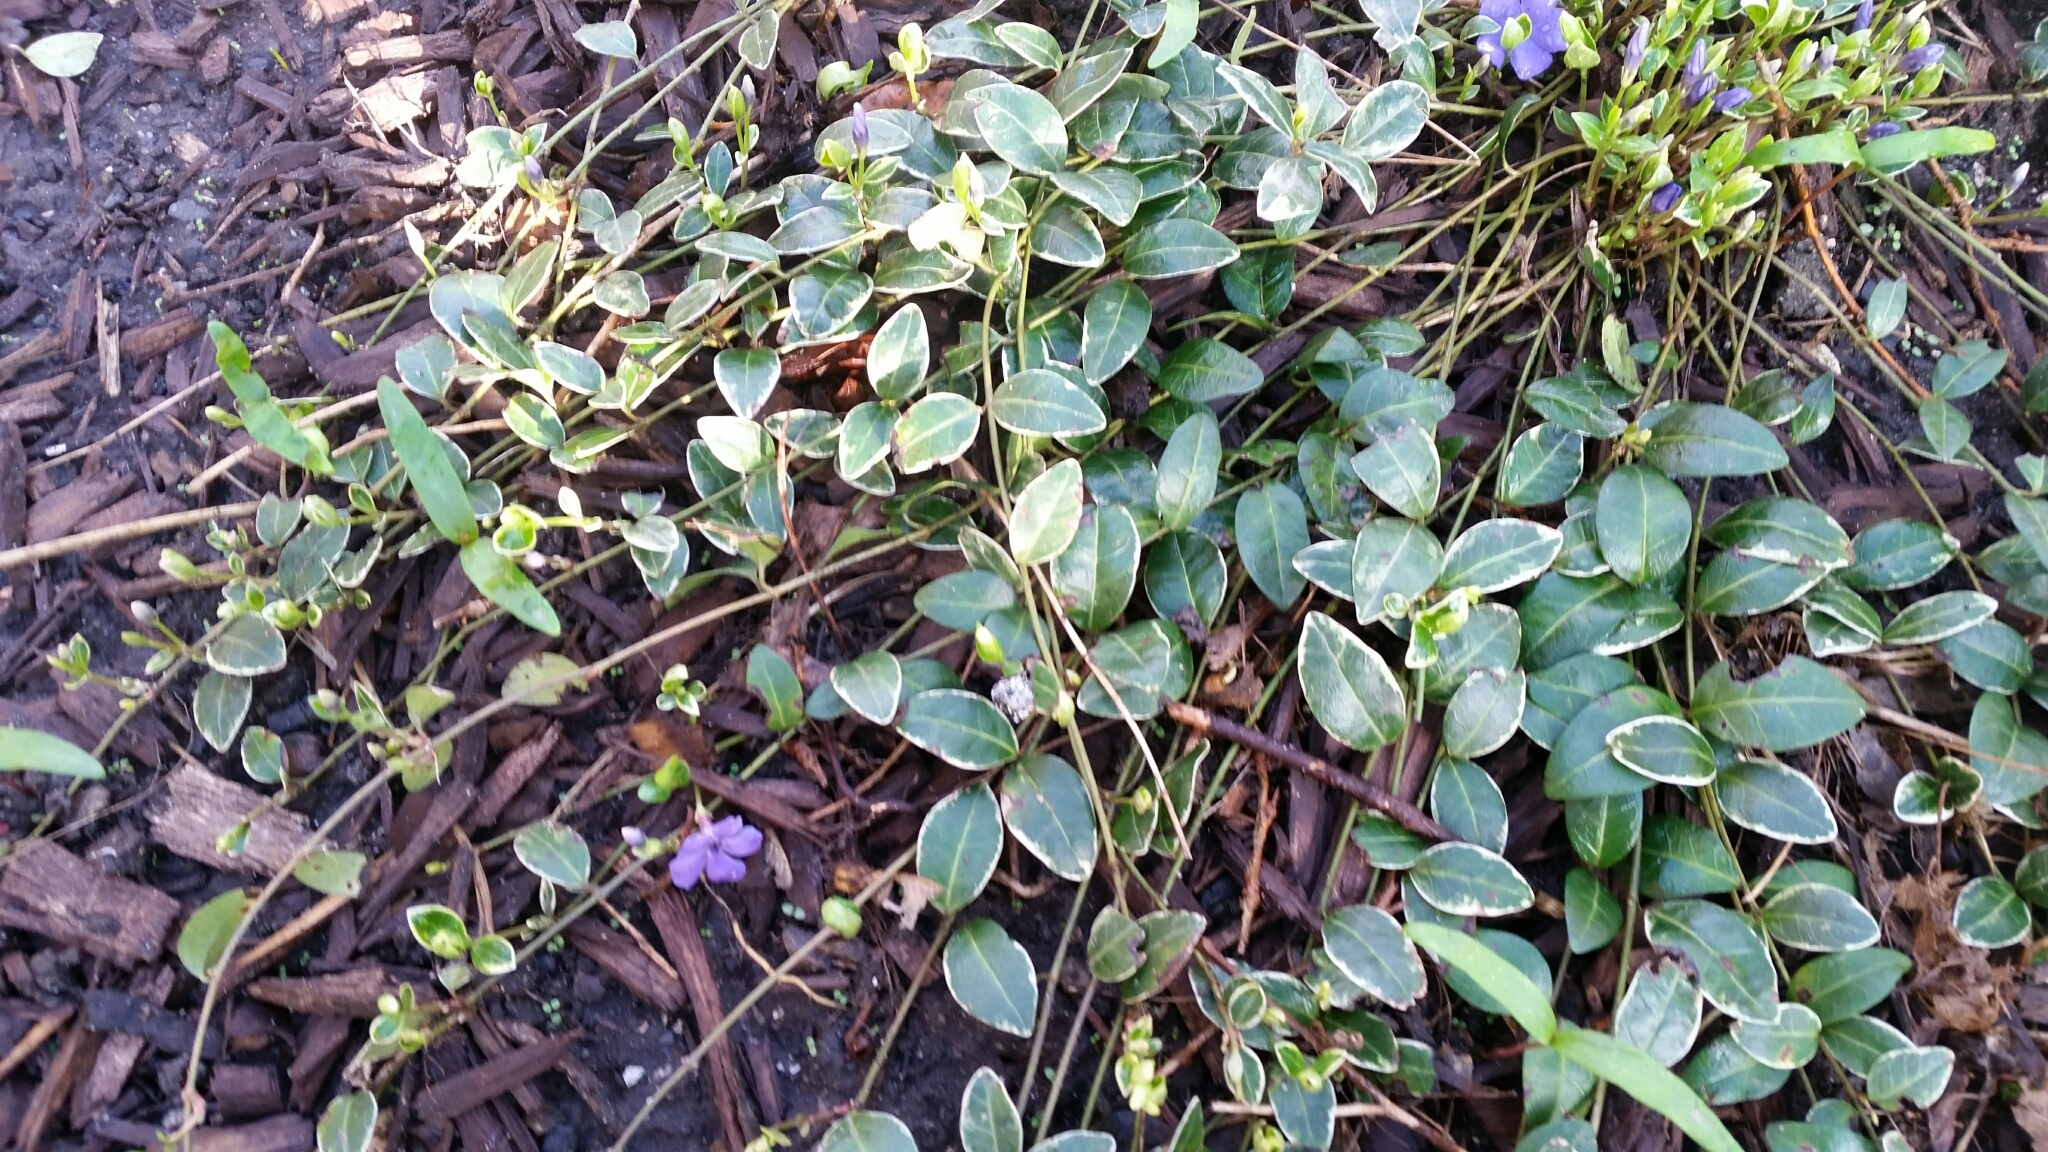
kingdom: Plantae
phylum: Tracheophyta
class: Magnoliopsida
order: Gentianales
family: Apocynaceae
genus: Vinca
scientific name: Vinca minor
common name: Lesser periwinkle
